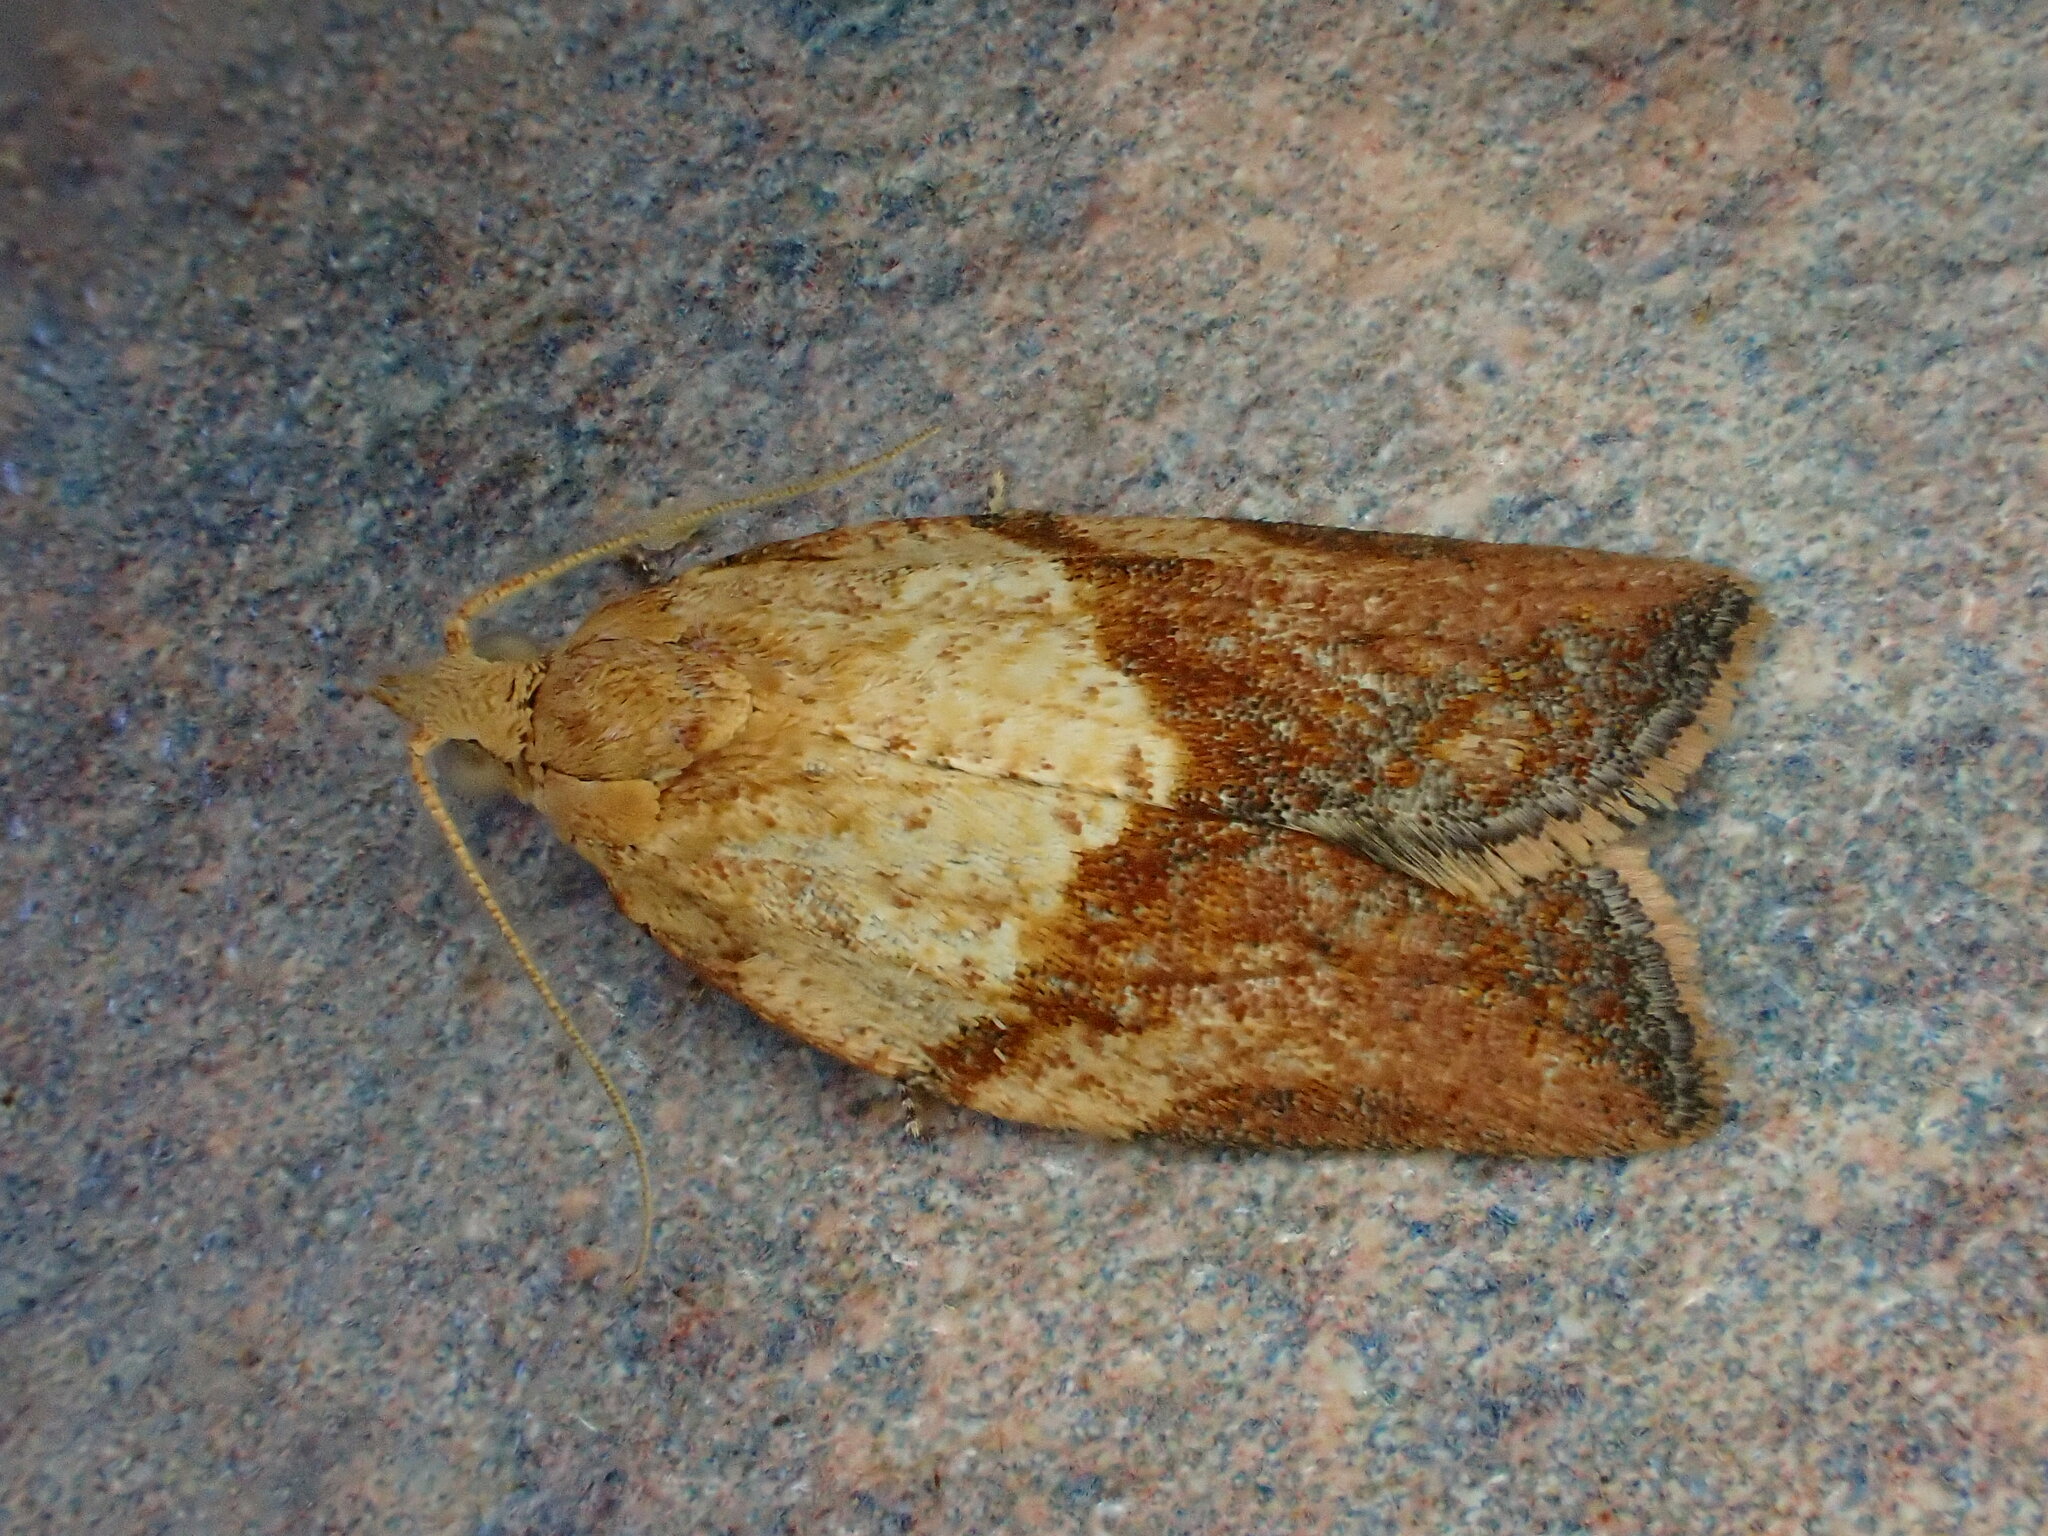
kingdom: Animalia
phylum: Arthropoda
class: Insecta
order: Lepidoptera
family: Tortricidae
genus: Epiphyas
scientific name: Epiphyas postvittana
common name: Light brown apple moth
